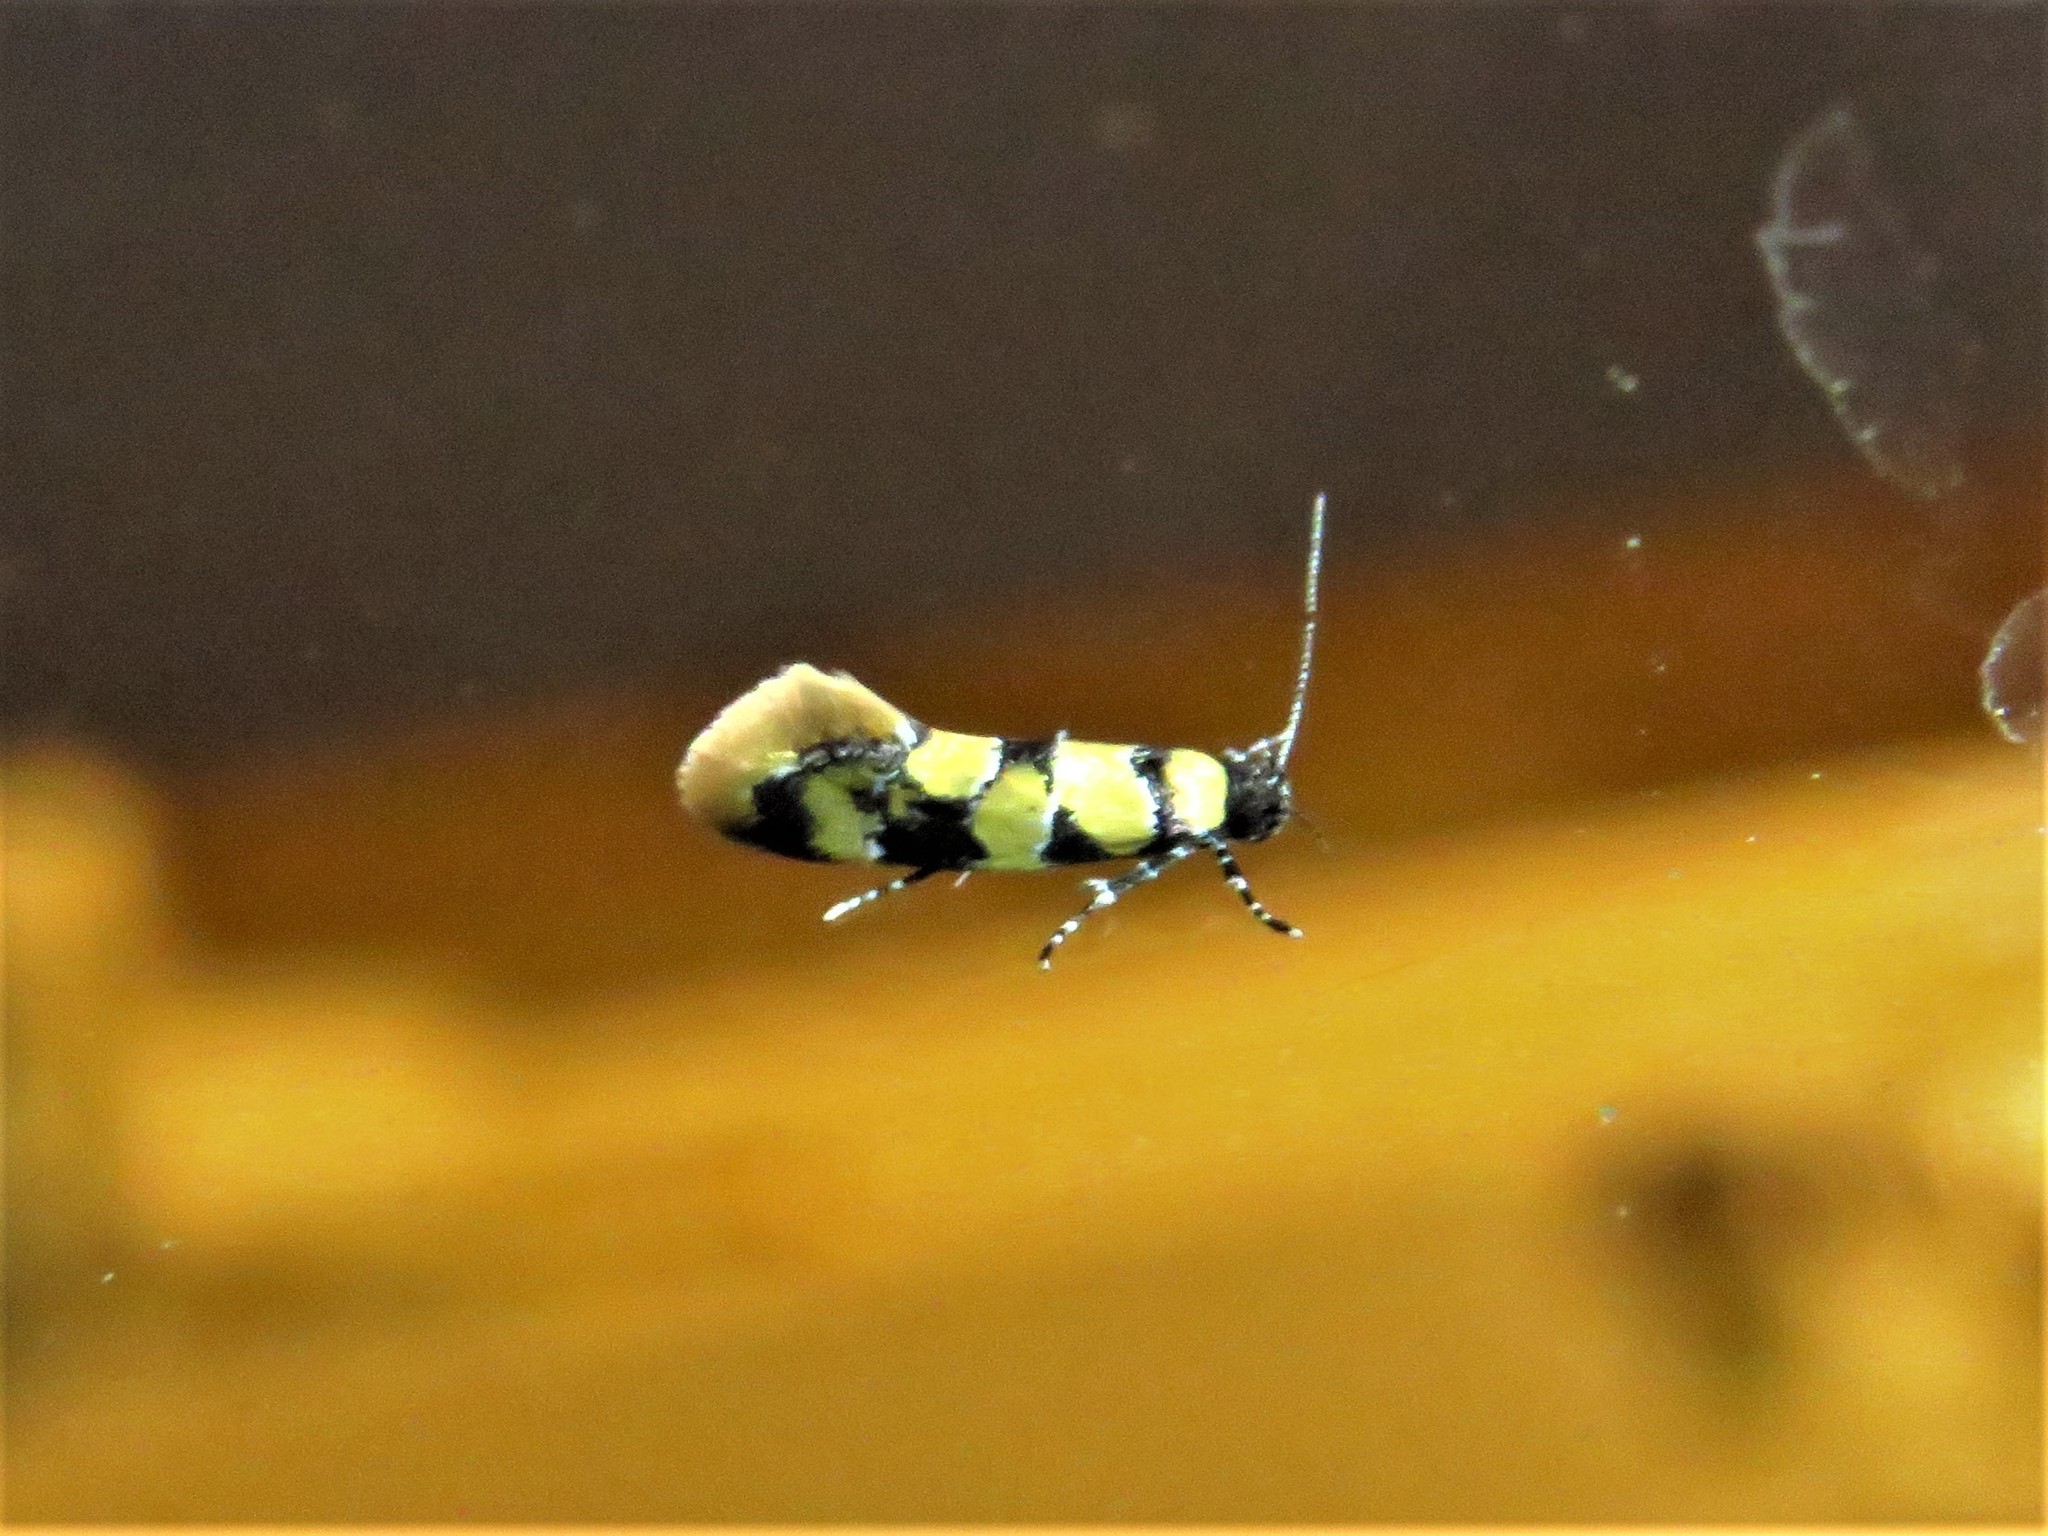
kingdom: Animalia
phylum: Arthropoda
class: Insecta
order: Lepidoptera
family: Oecophoridae
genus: Decantha
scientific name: Decantha borkhausenii
